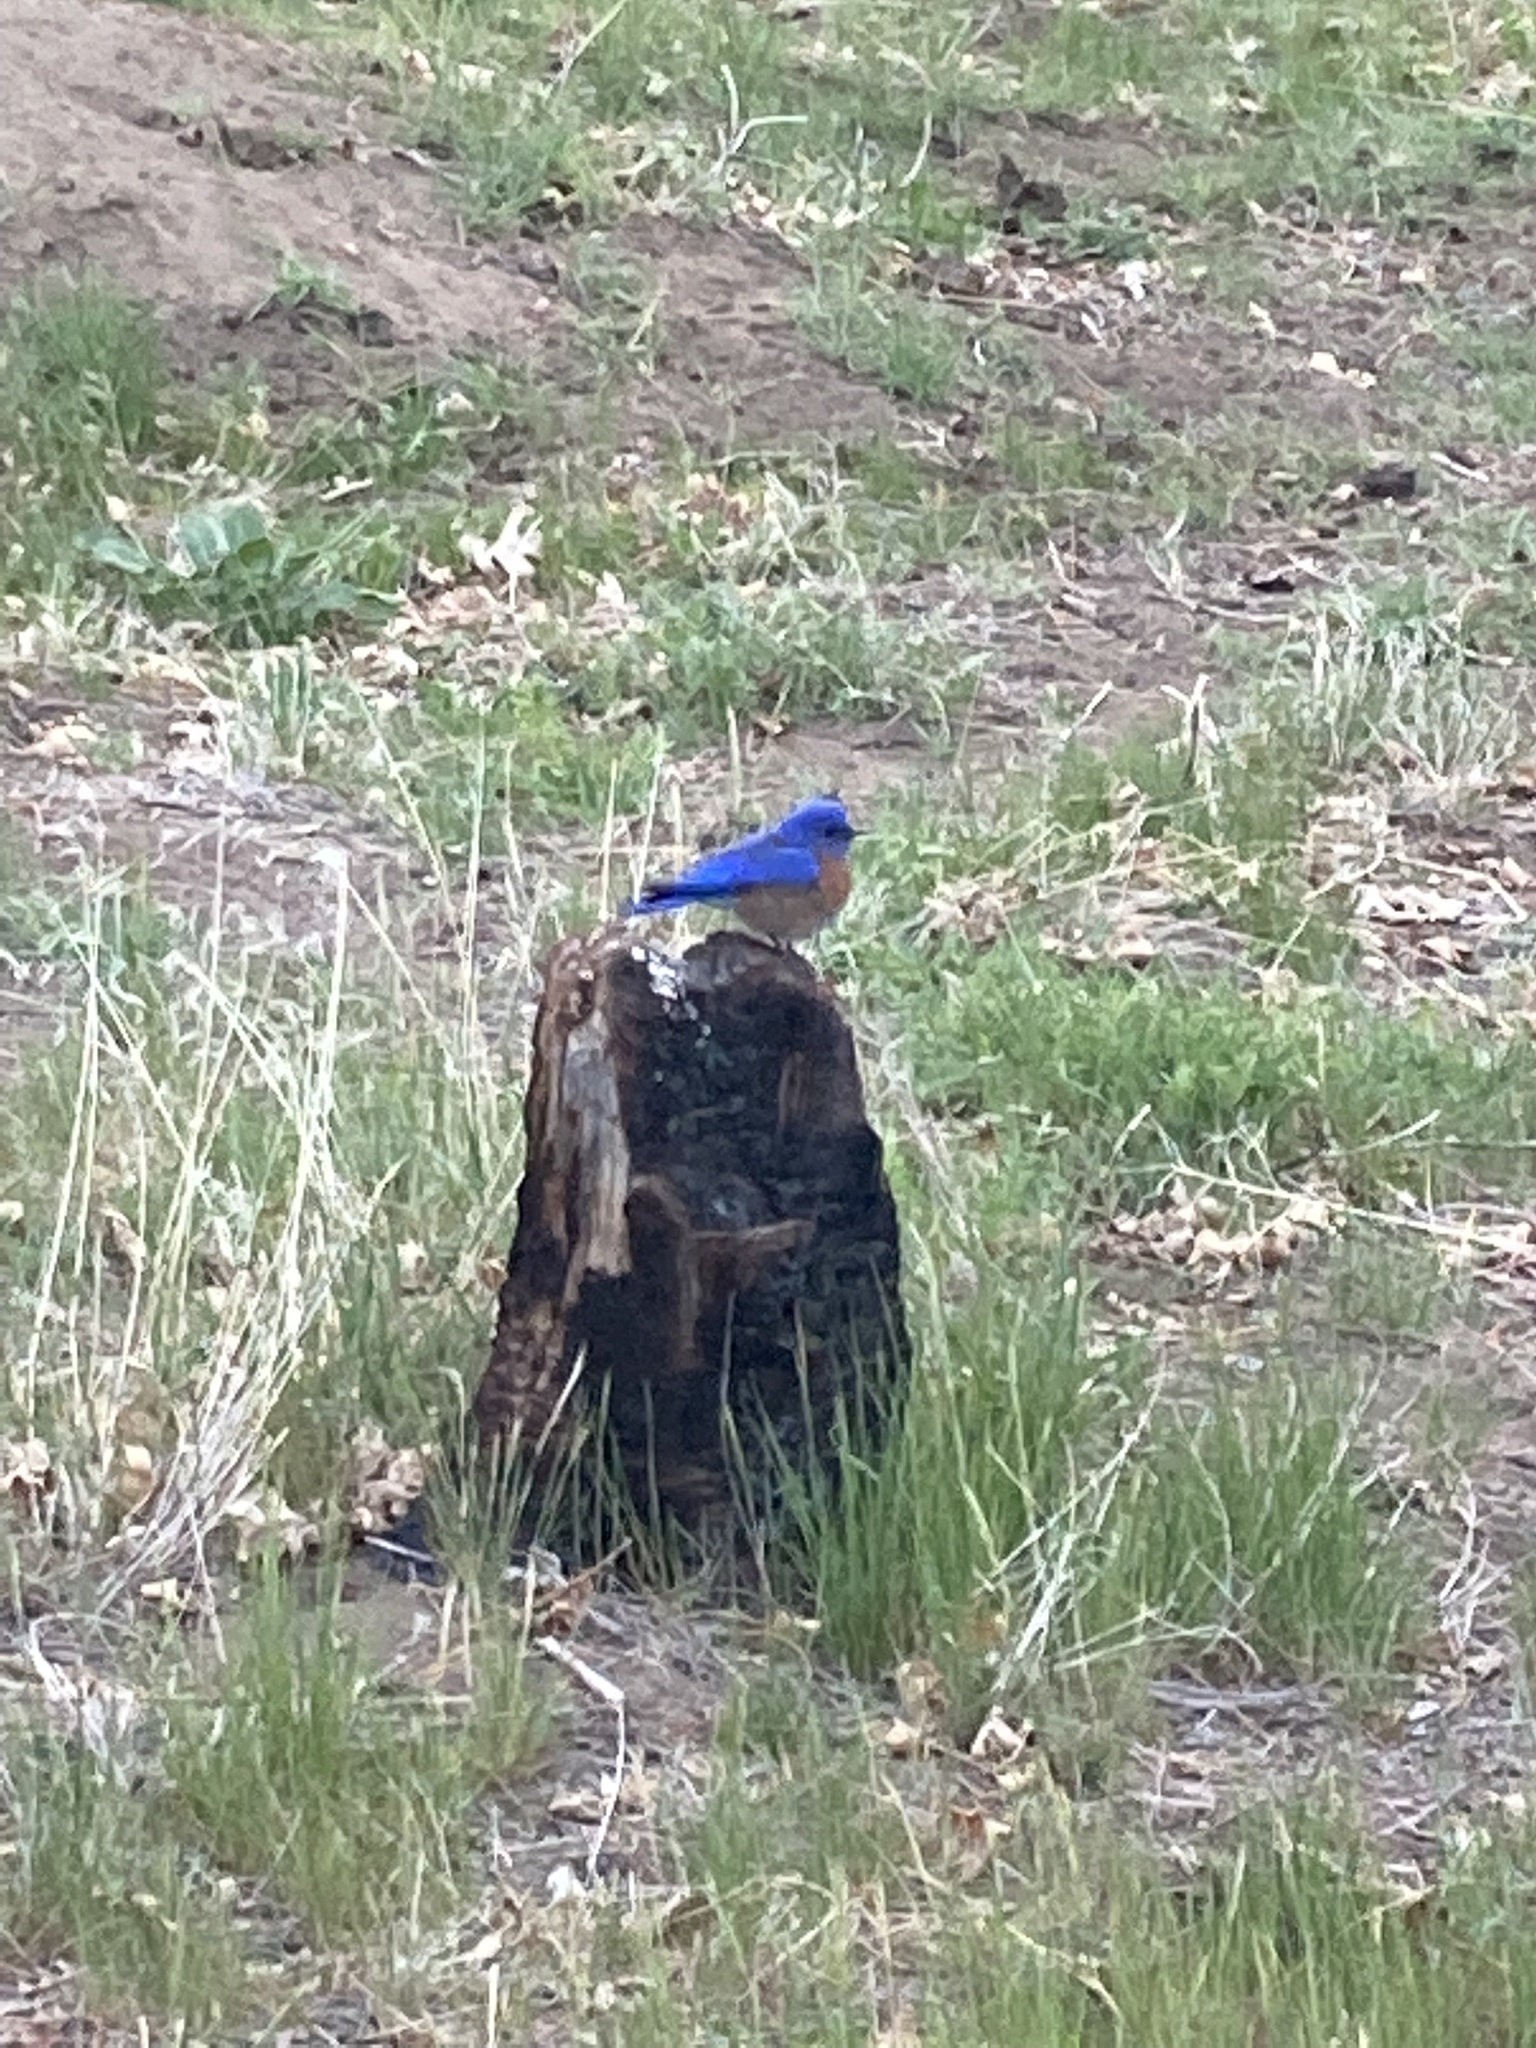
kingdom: Animalia
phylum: Chordata
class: Aves
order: Passeriformes
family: Turdidae
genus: Sialia
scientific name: Sialia mexicana
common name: Western bluebird
